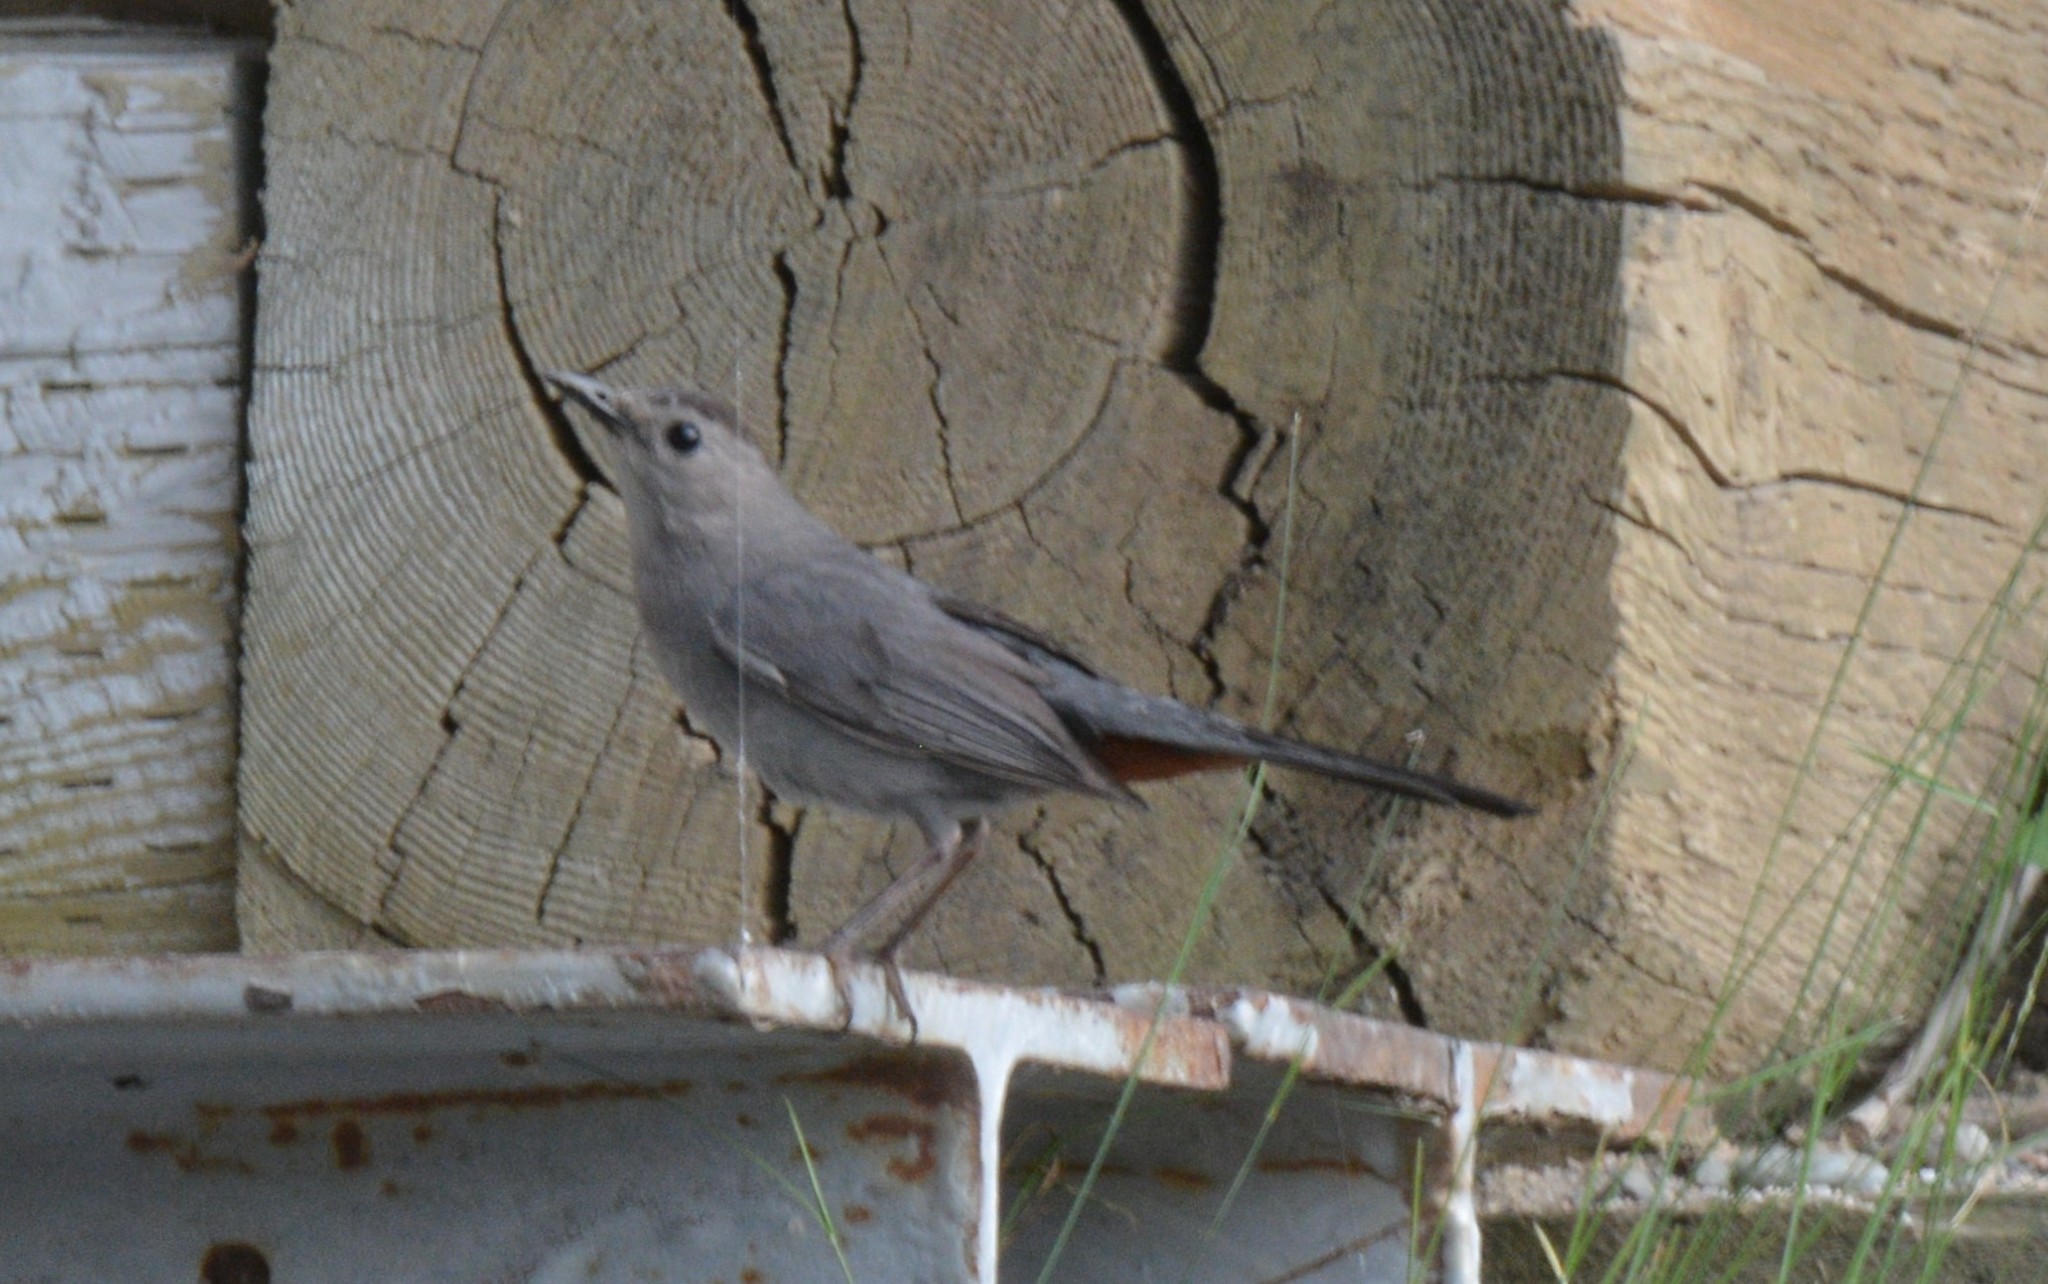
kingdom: Animalia
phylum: Chordata
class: Aves
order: Passeriformes
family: Mimidae
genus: Dumetella
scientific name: Dumetella carolinensis
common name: Gray catbird
